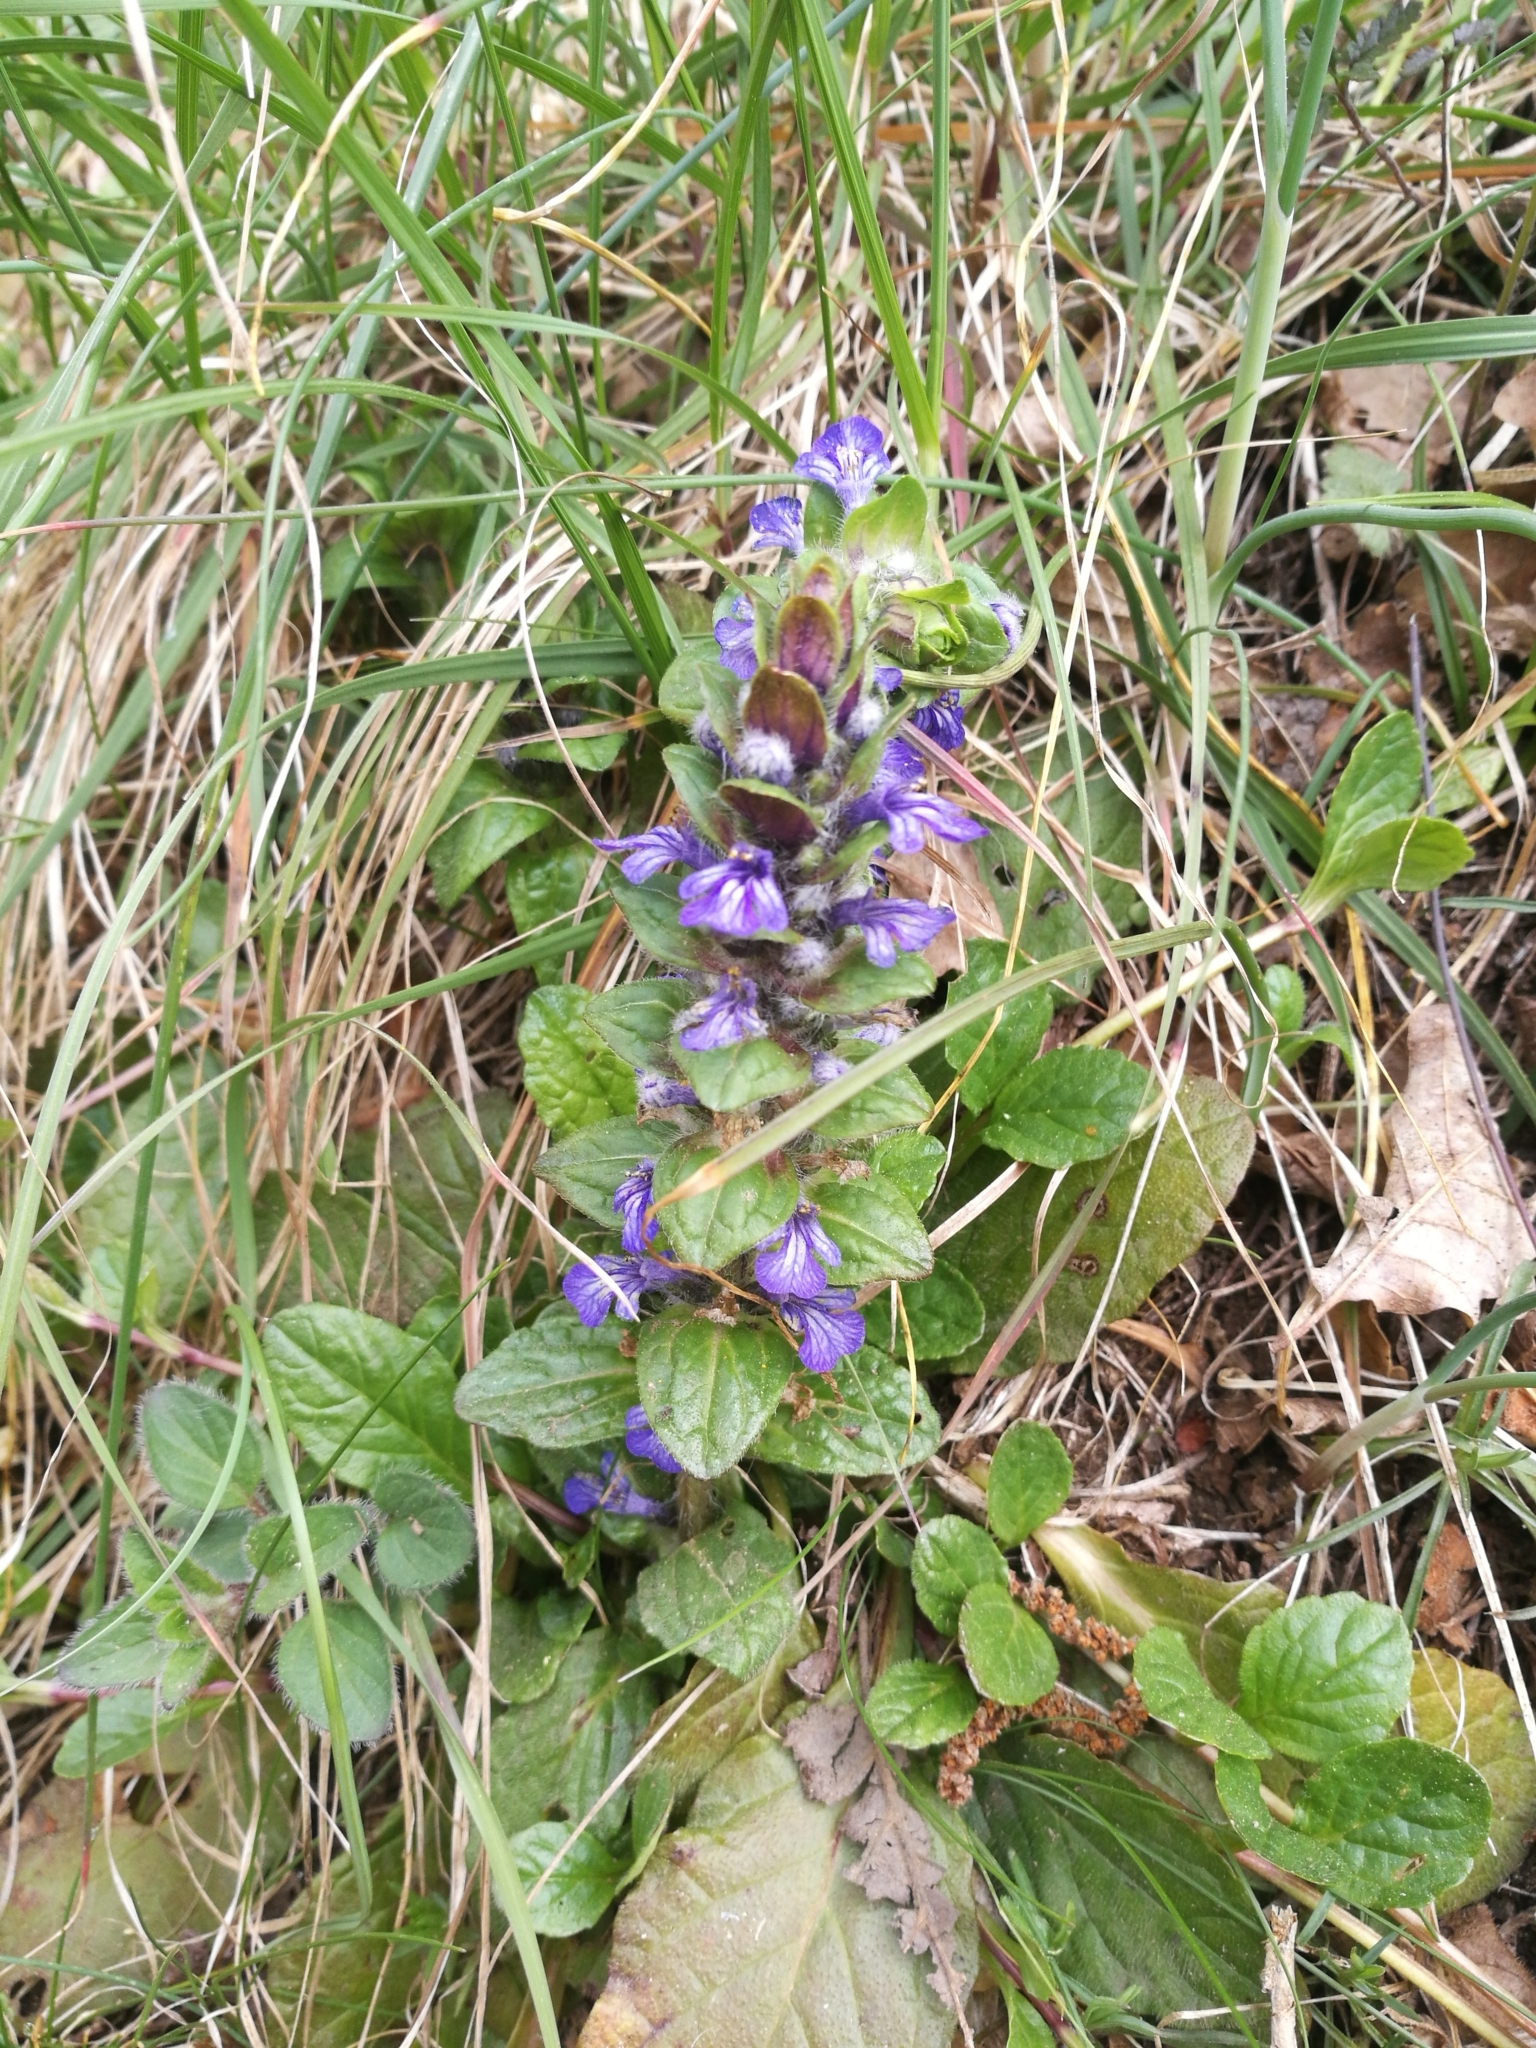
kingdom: Plantae
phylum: Tracheophyta
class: Magnoliopsida
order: Lamiales
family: Lamiaceae
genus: Ajuga
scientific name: Ajuga reptans
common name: Bugle
